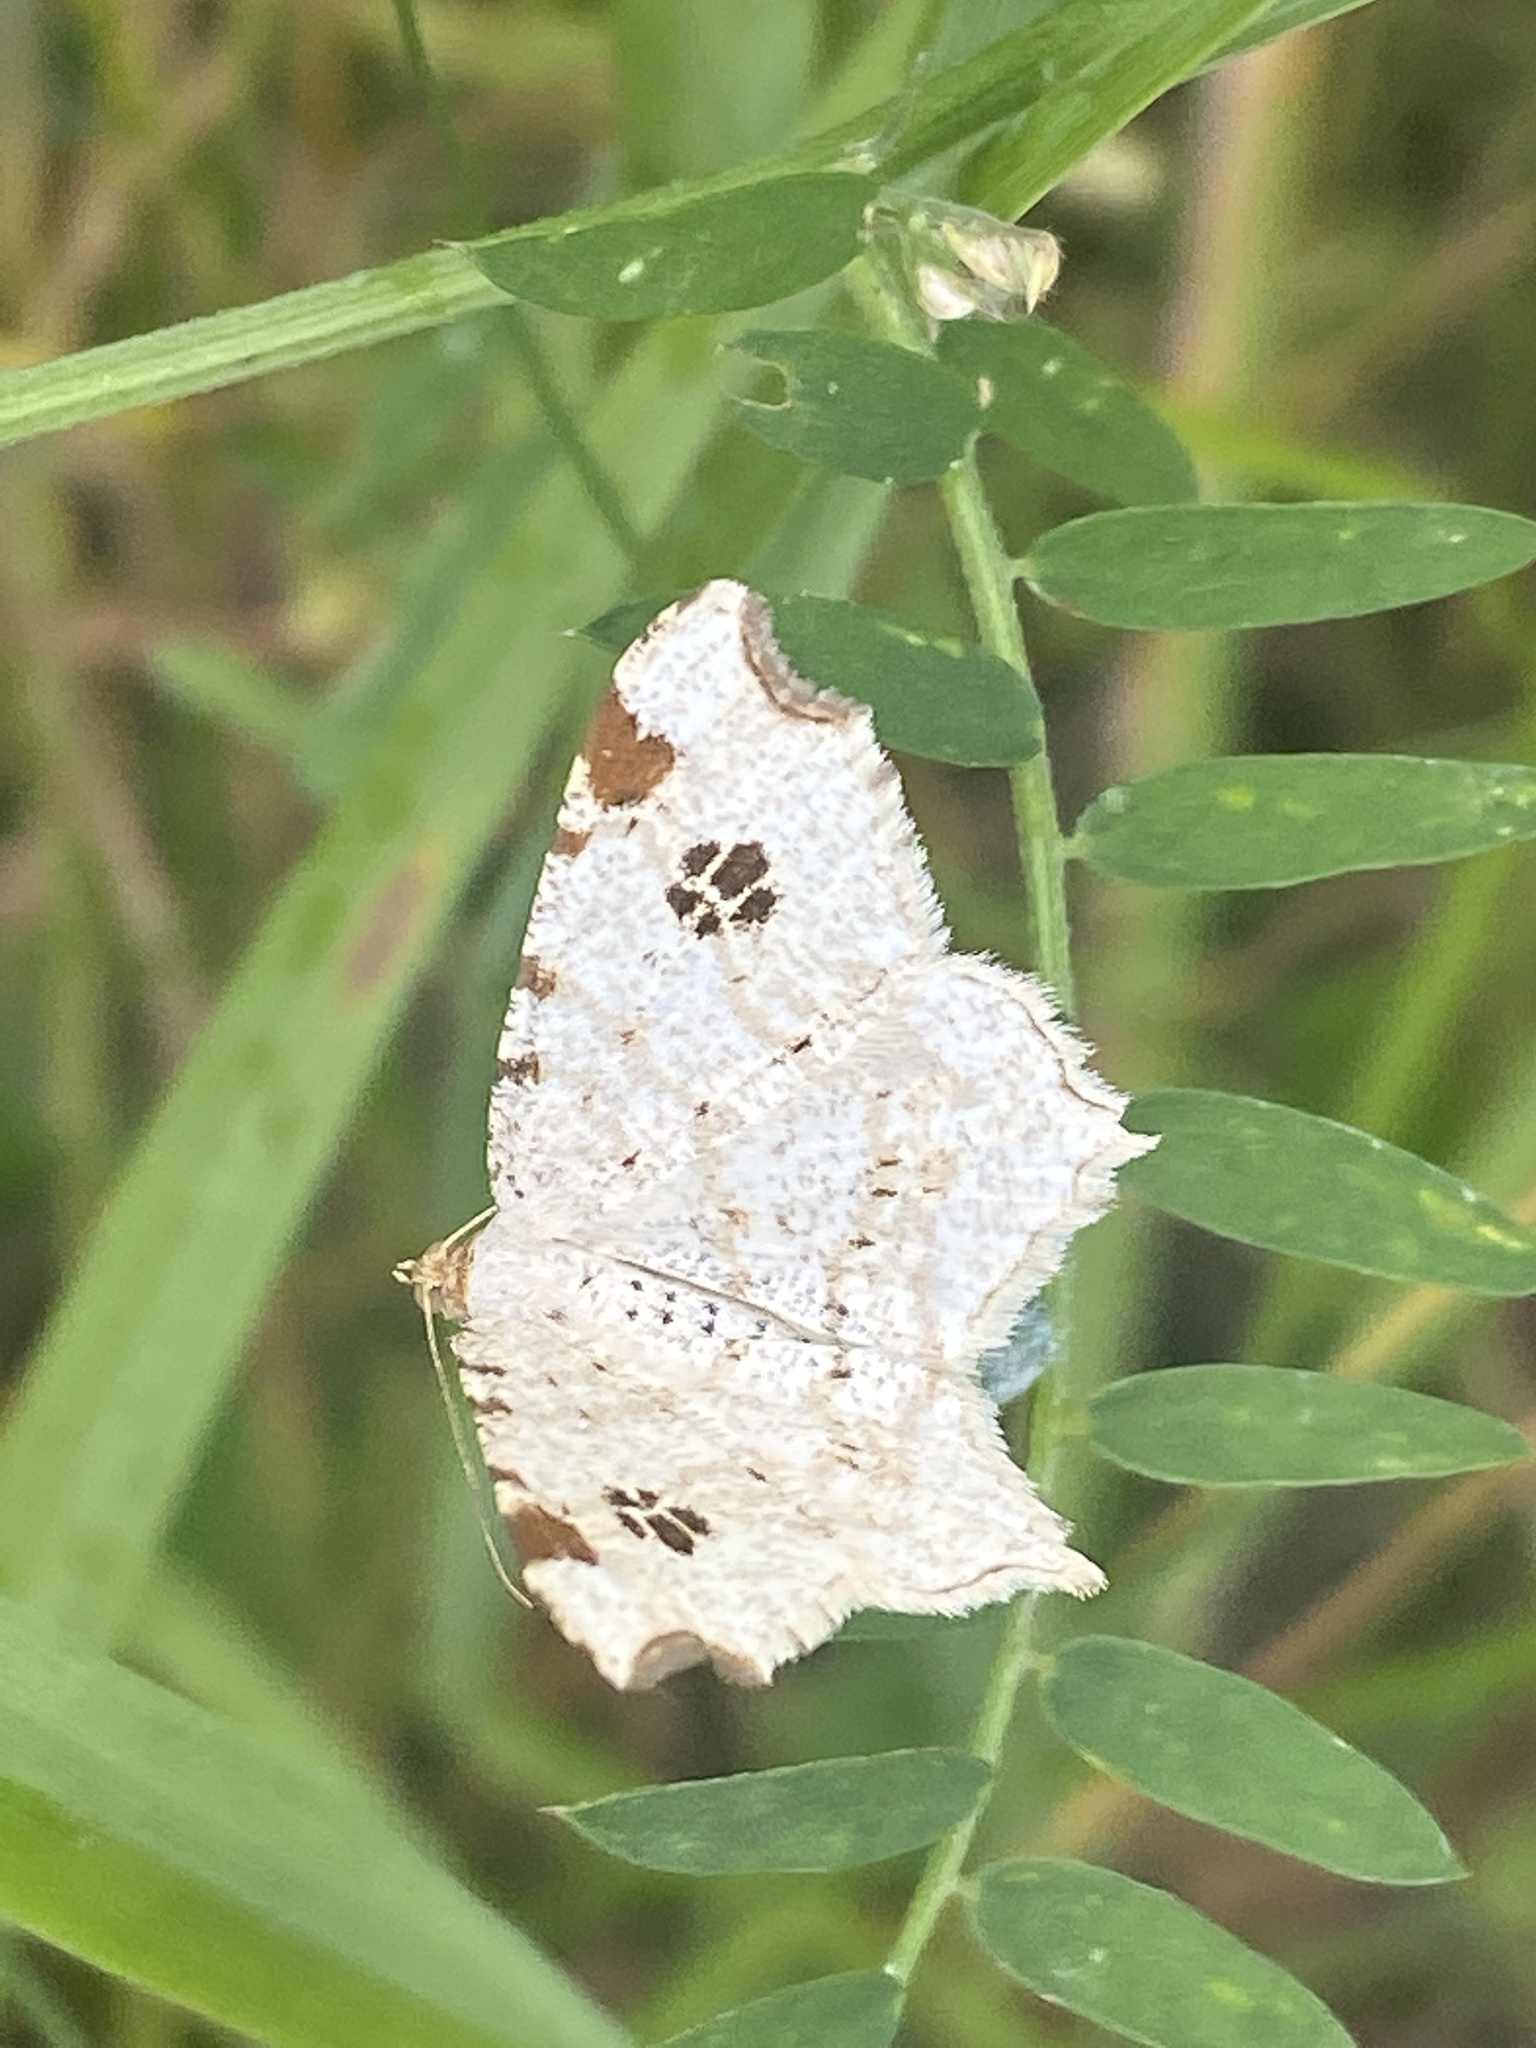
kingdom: Animalia
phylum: Arthropoda
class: Insecta
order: Lepidoptera
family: Geometridae
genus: Macaria
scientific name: Macaria notata
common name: Peacock moth
